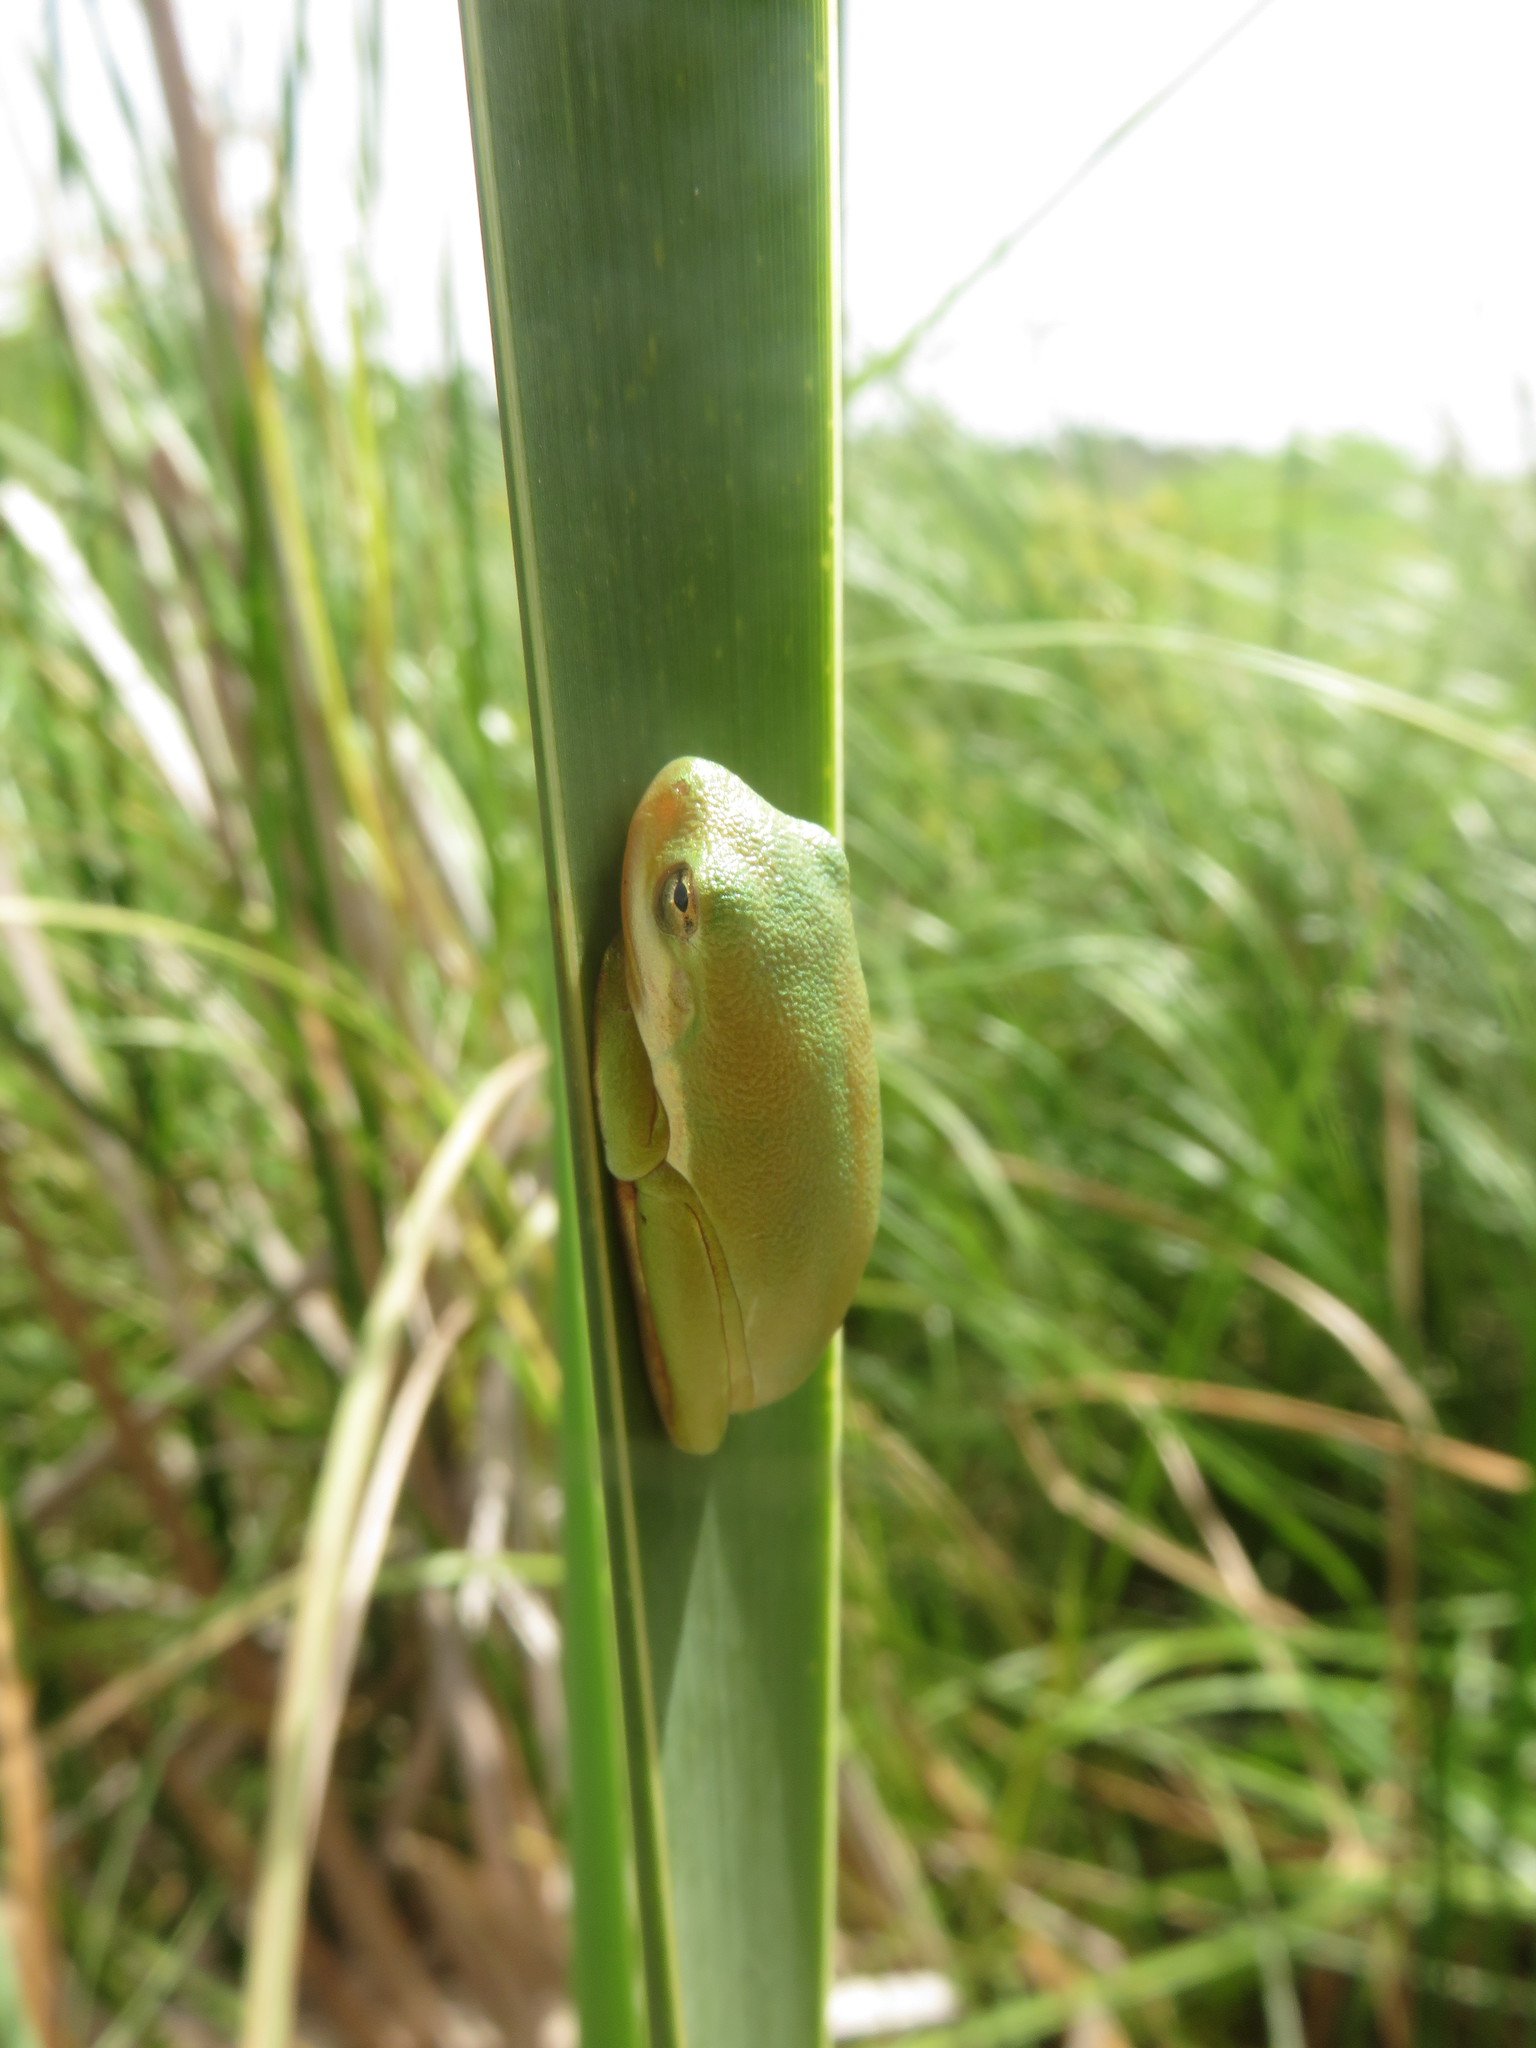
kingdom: Animalia
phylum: Chordata
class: Amphibia
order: Anura
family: Hylidae
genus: Dryophytes
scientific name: Dryophytes cinereus
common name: Green treefrog
